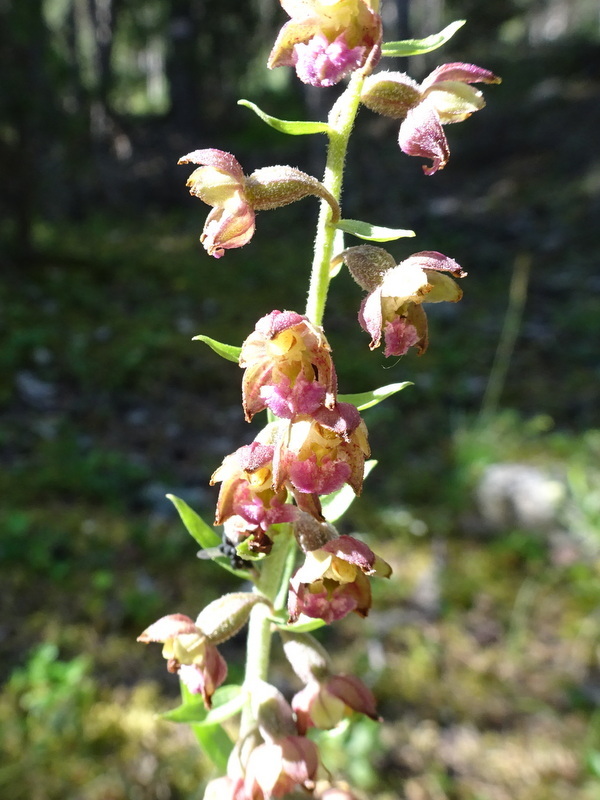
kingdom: Plantae
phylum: Tracheophyta
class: Liliopsida
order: Asparagales
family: Orchidaceae
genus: Epipactis
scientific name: Epipactis atrorubens
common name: Dark-red helleborine
